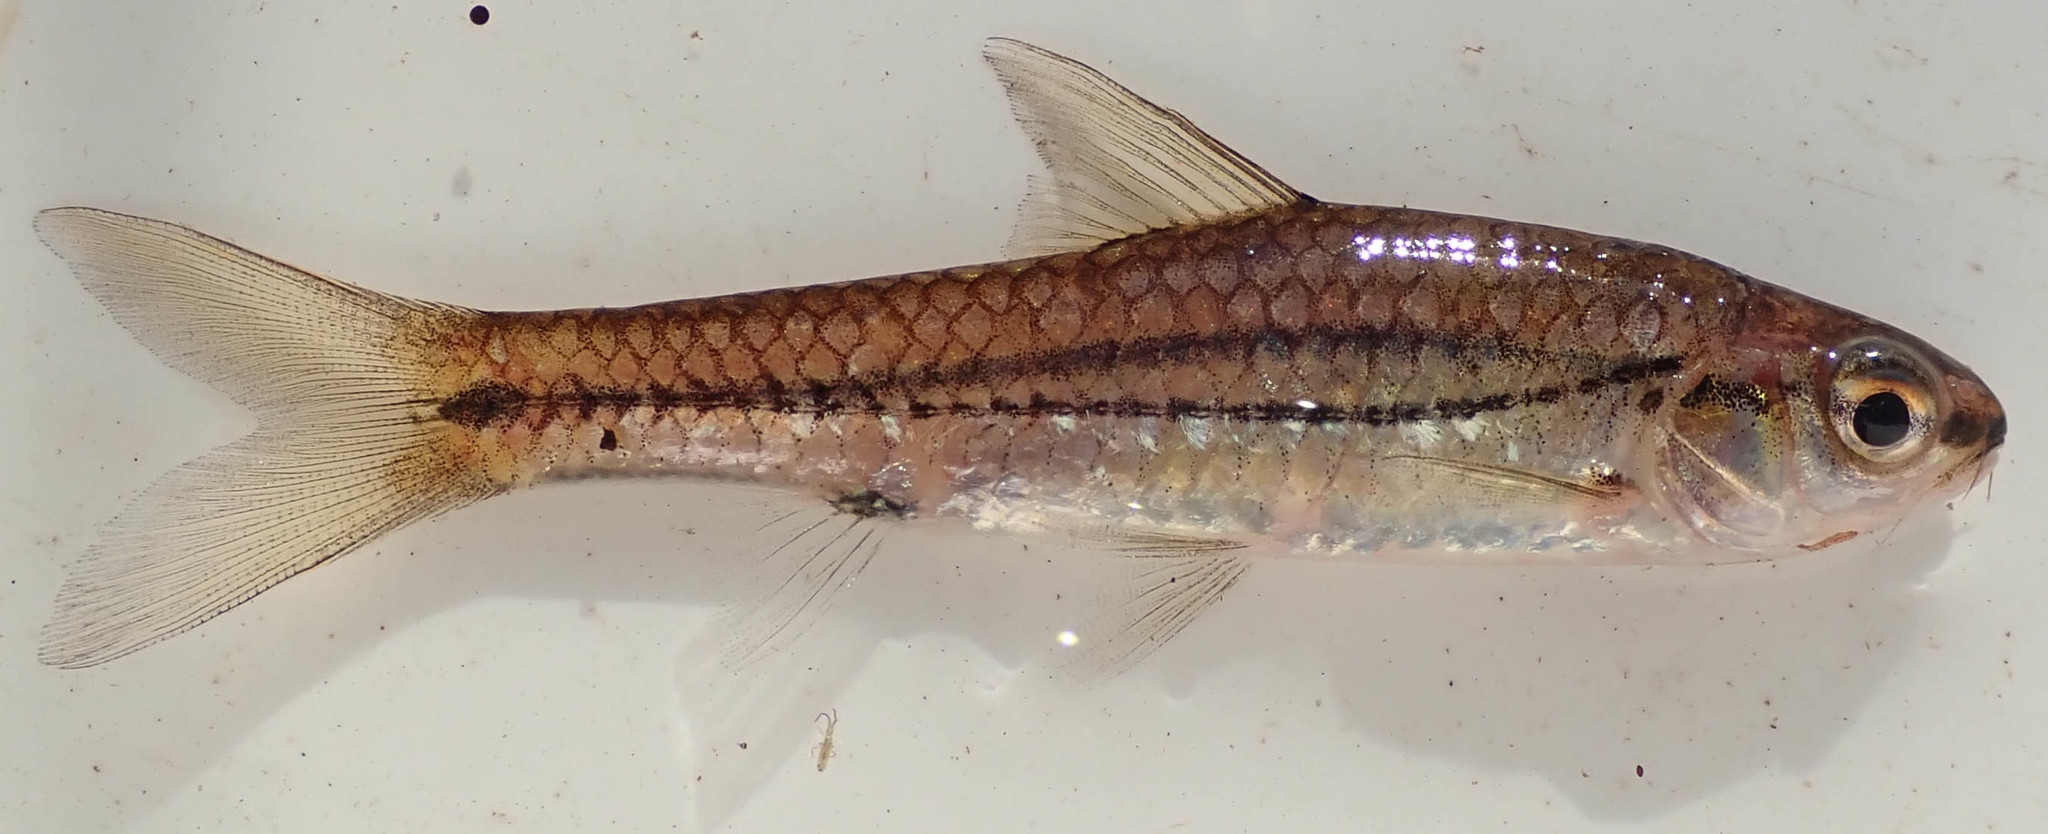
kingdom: Animalia
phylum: Chordata
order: Cypriniformes
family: Cyprinidae
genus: Enteromius
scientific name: Enteromius bifrenatus
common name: Hyphen barb
